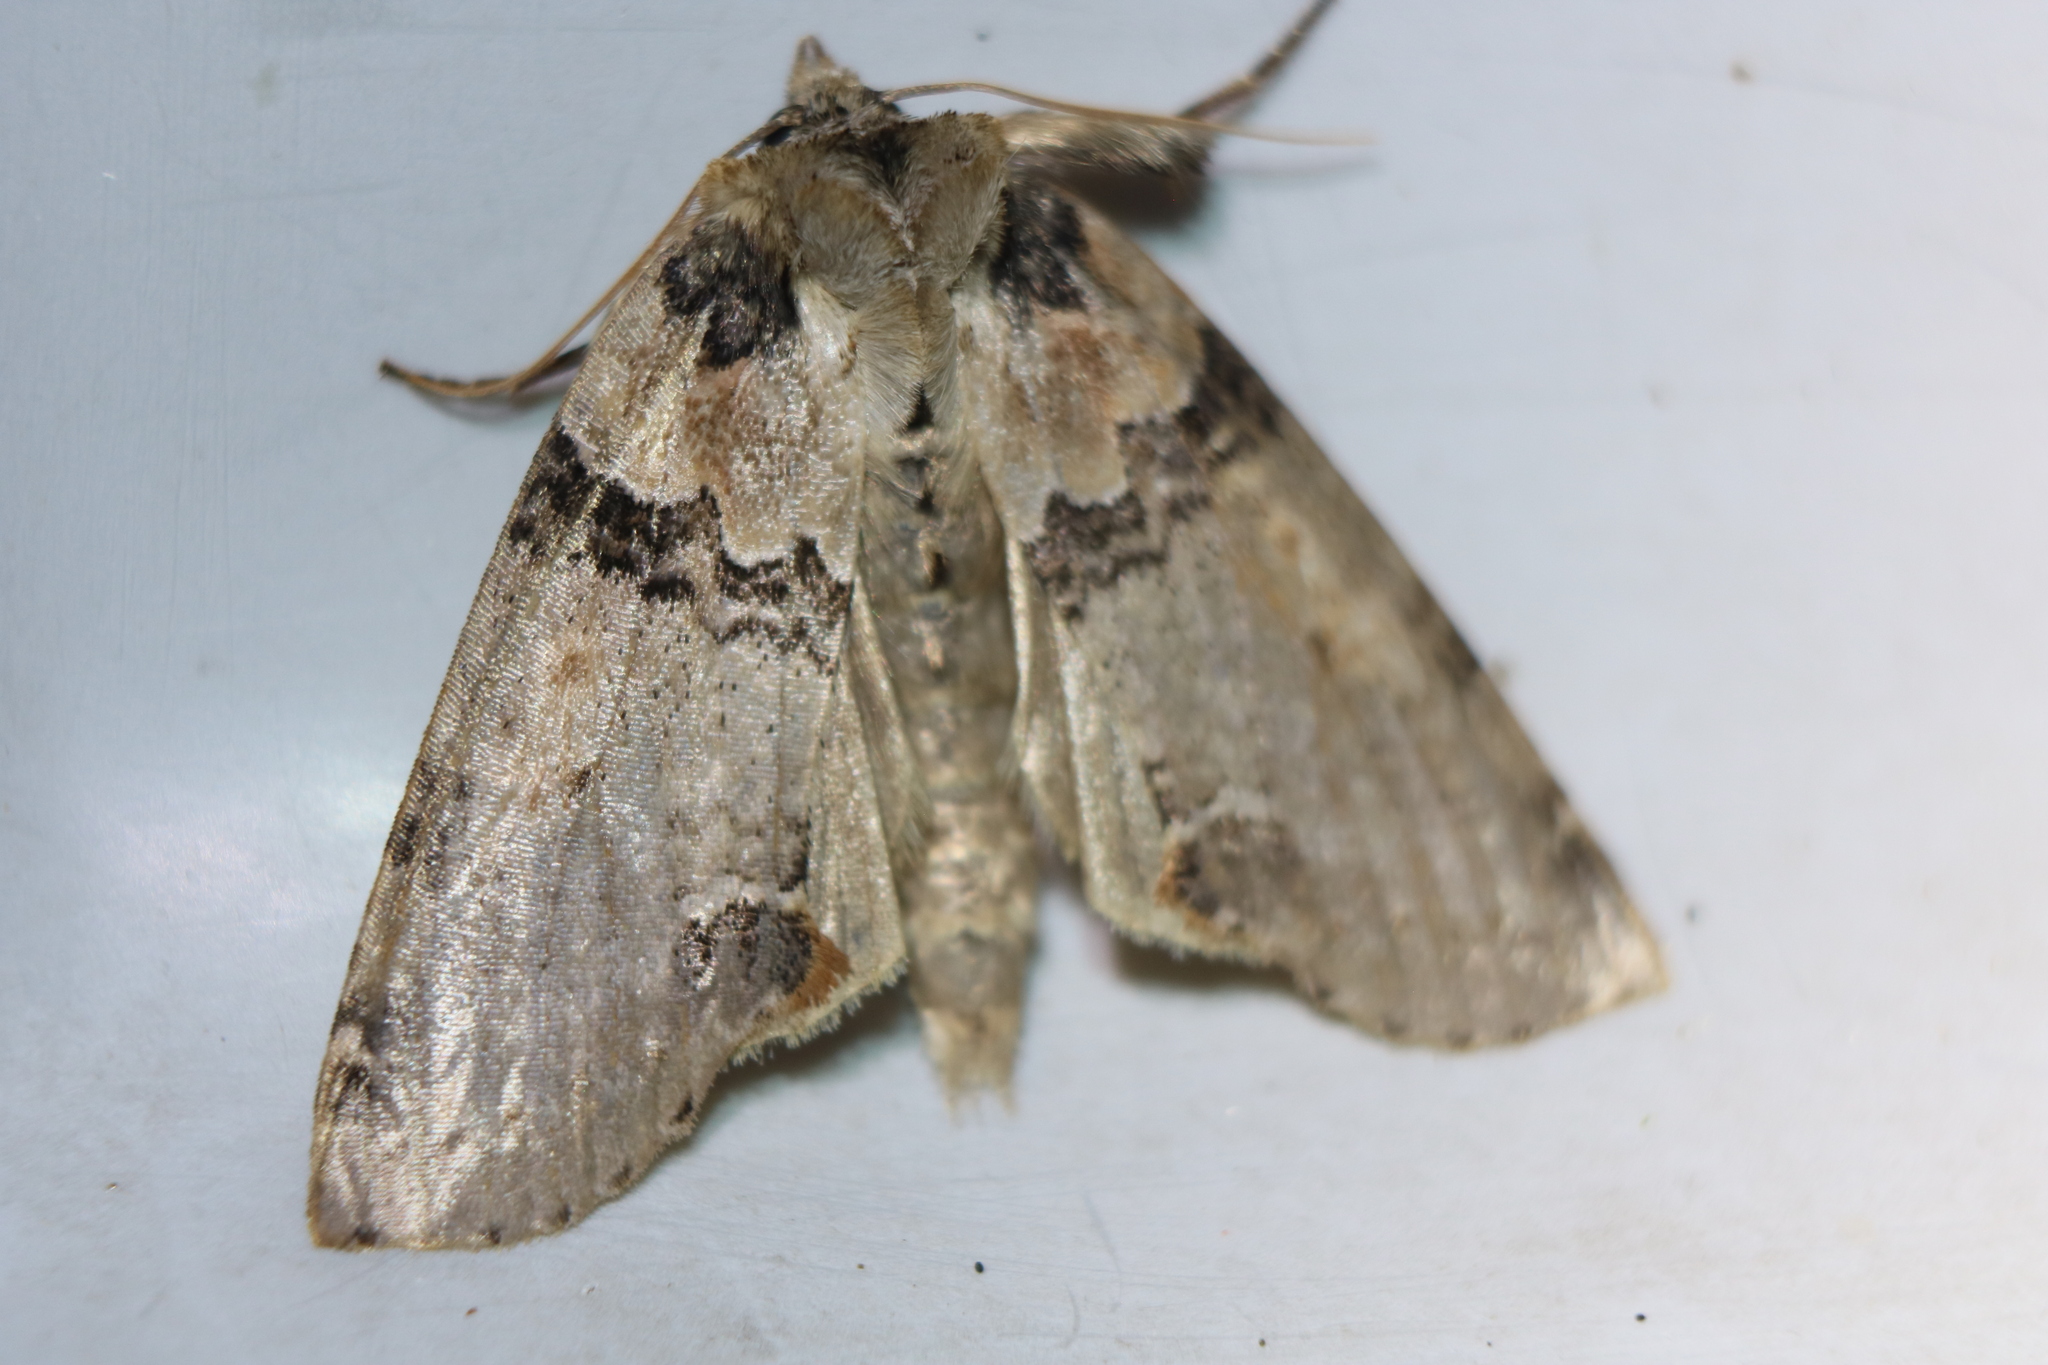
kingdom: Animalia
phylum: Arthropoda
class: Insecta
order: Lepidoptera
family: Drepanidae
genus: Pseudothyatira
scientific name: Pseudothyatira cymatophoroides
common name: Tufted thyatirid moth
